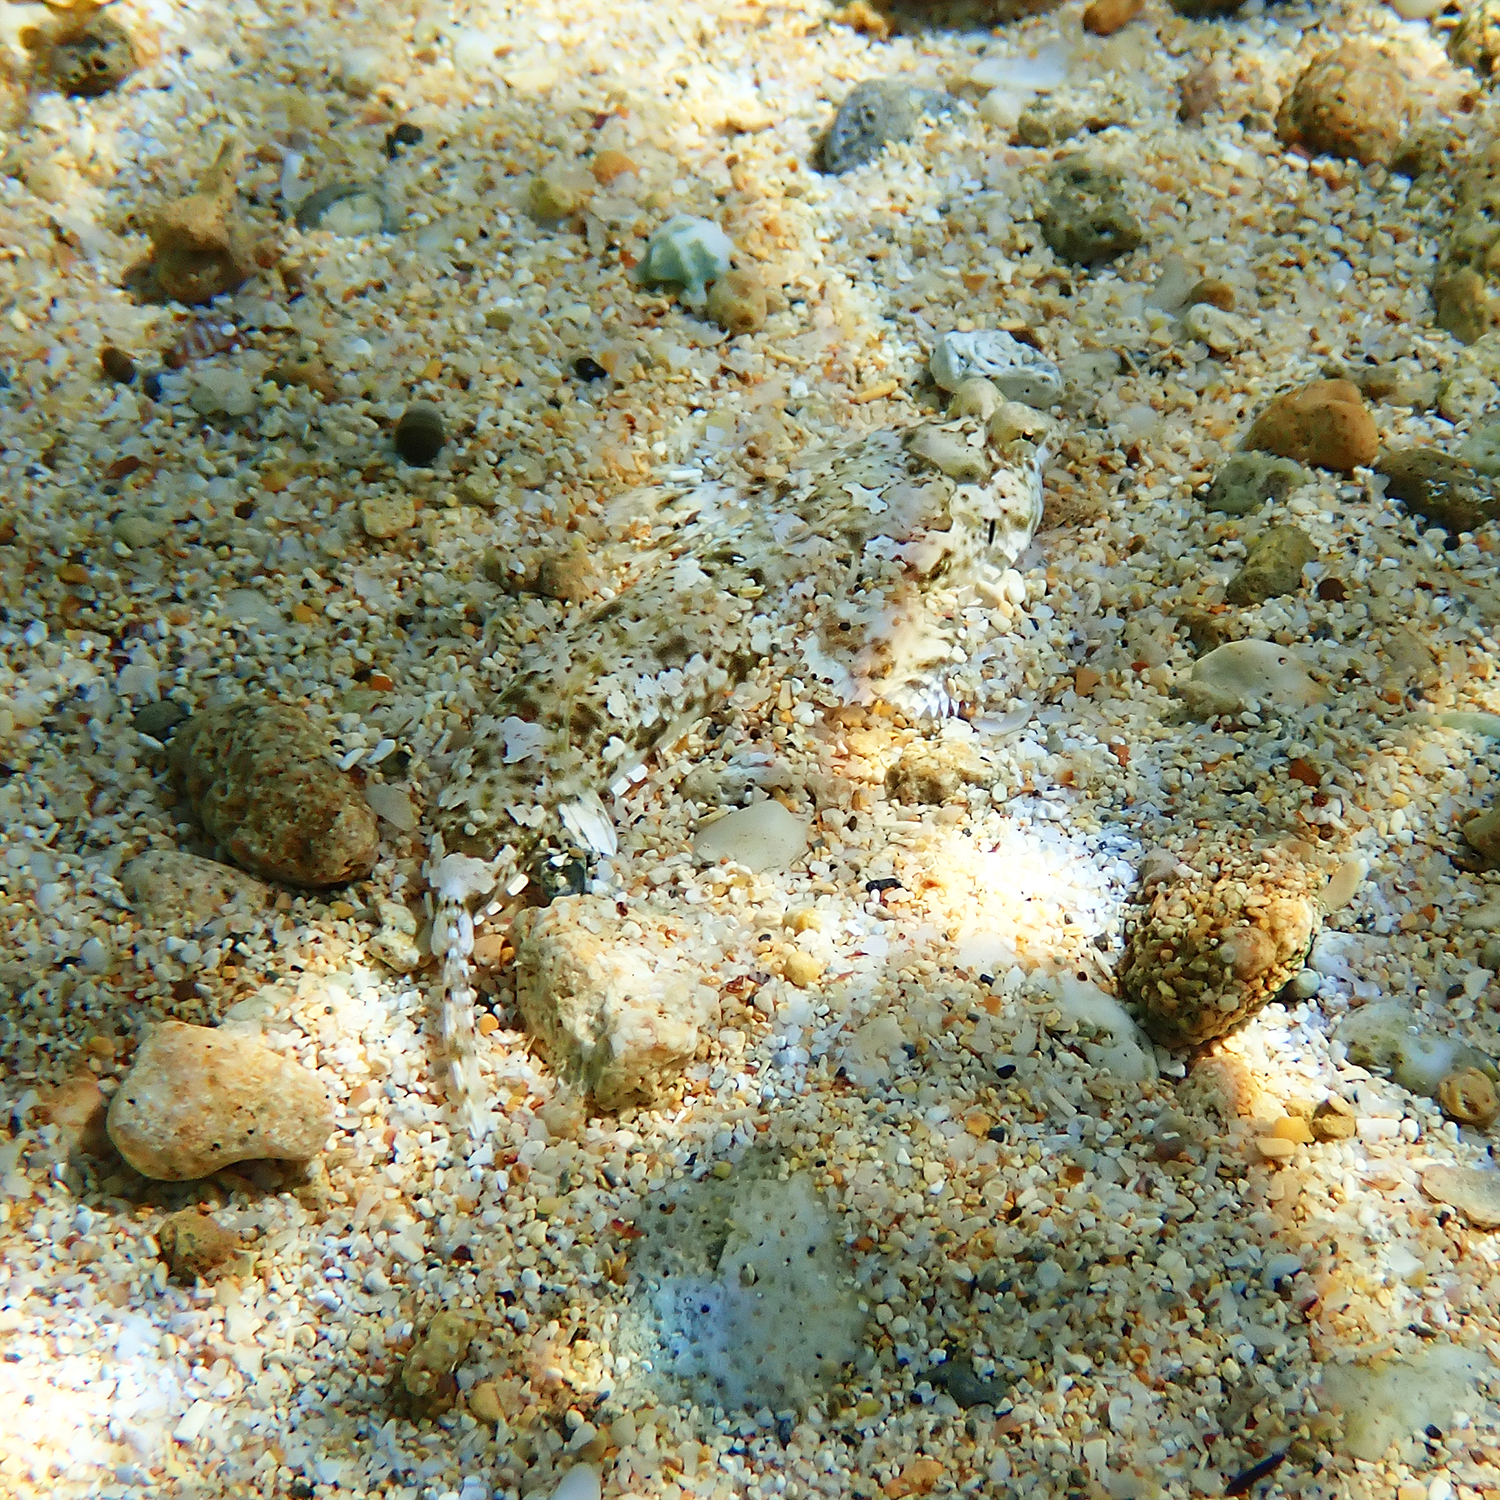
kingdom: Animalia
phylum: Chordata
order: Perciformes
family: Callionymidae
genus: Diplogrammus
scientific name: Diplogrammus goramensis
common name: Goram dragonet
